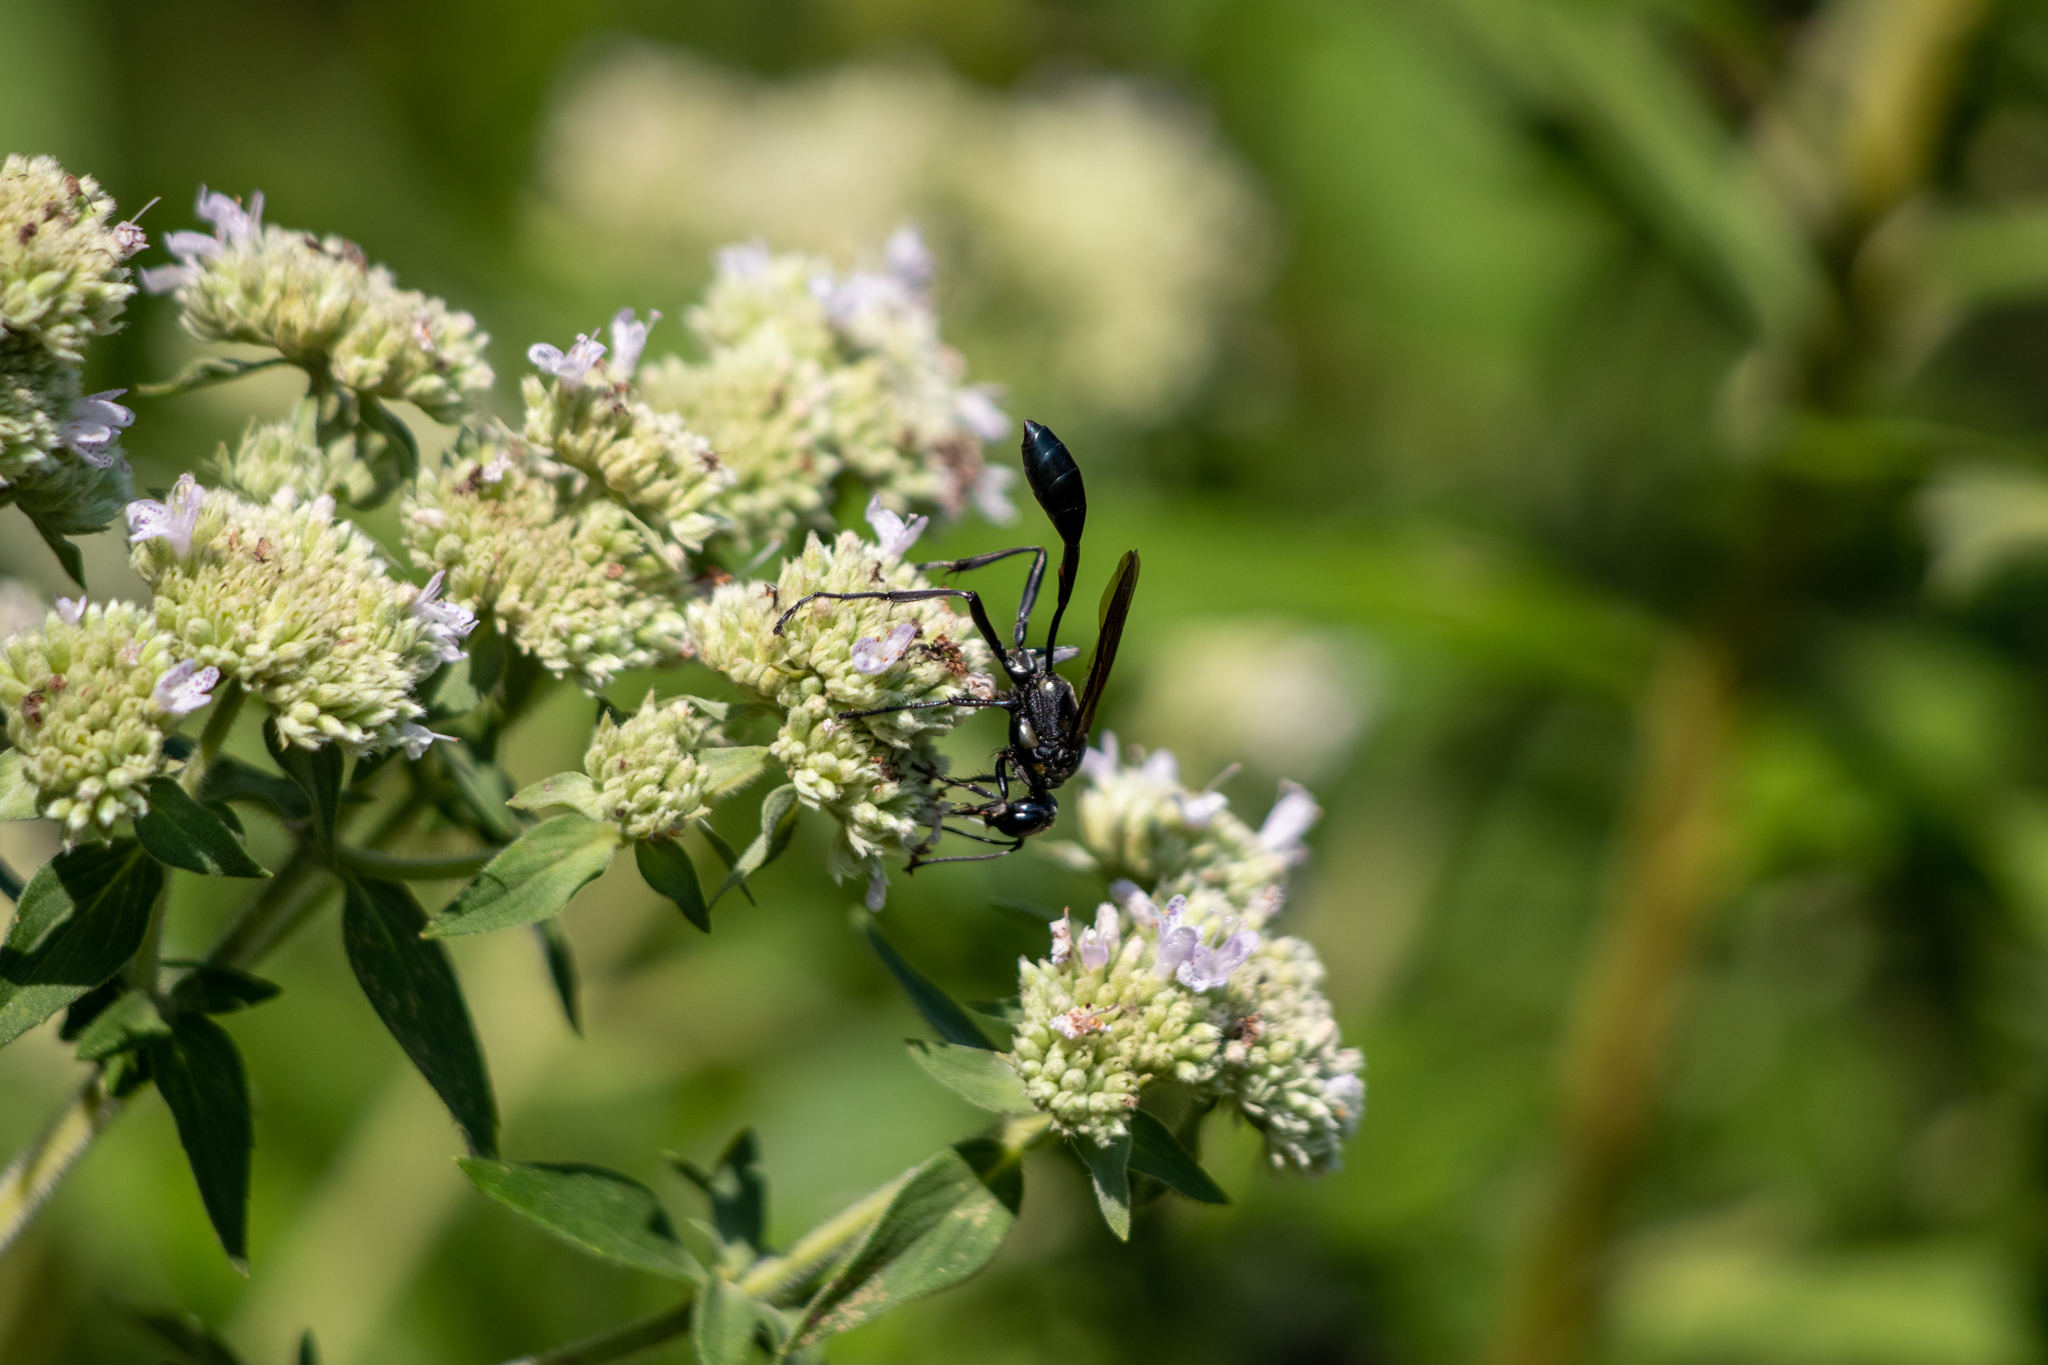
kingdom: Animalia
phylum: Arthropoda
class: Insecta
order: Hymenoptera
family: Sphecidae
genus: Eremnophila
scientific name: Eremnophila aureonotata
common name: Gold-marked thread-waisted wasp
